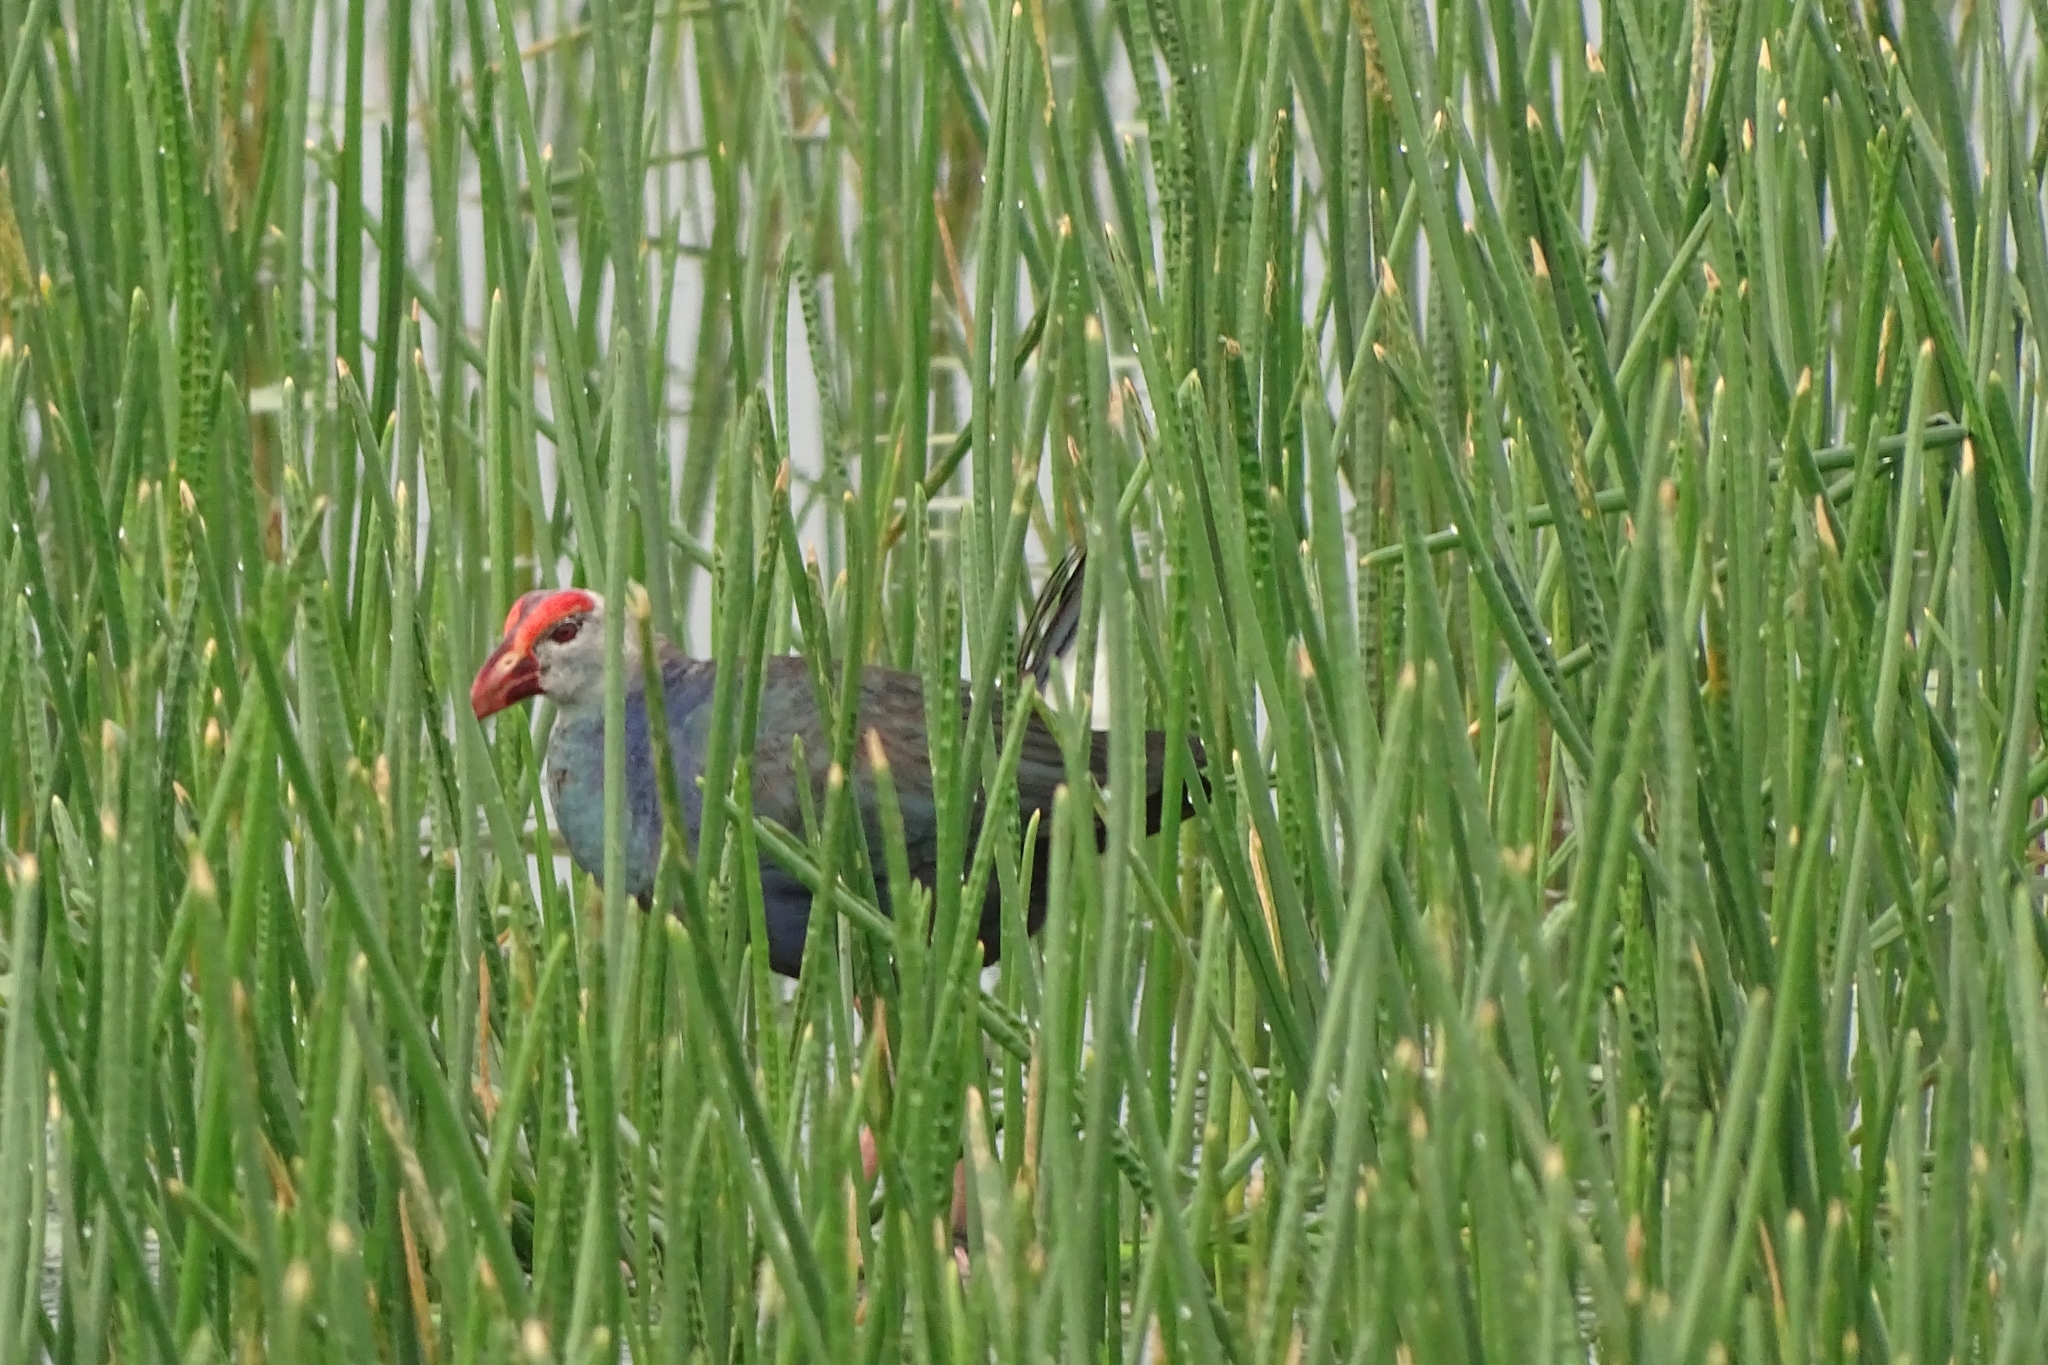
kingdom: Animalia
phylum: Chordata
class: Aves
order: Gruiformes
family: Rallidae
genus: Porphyrio
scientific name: Porphyrio porphyrio
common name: Purple swamphen
